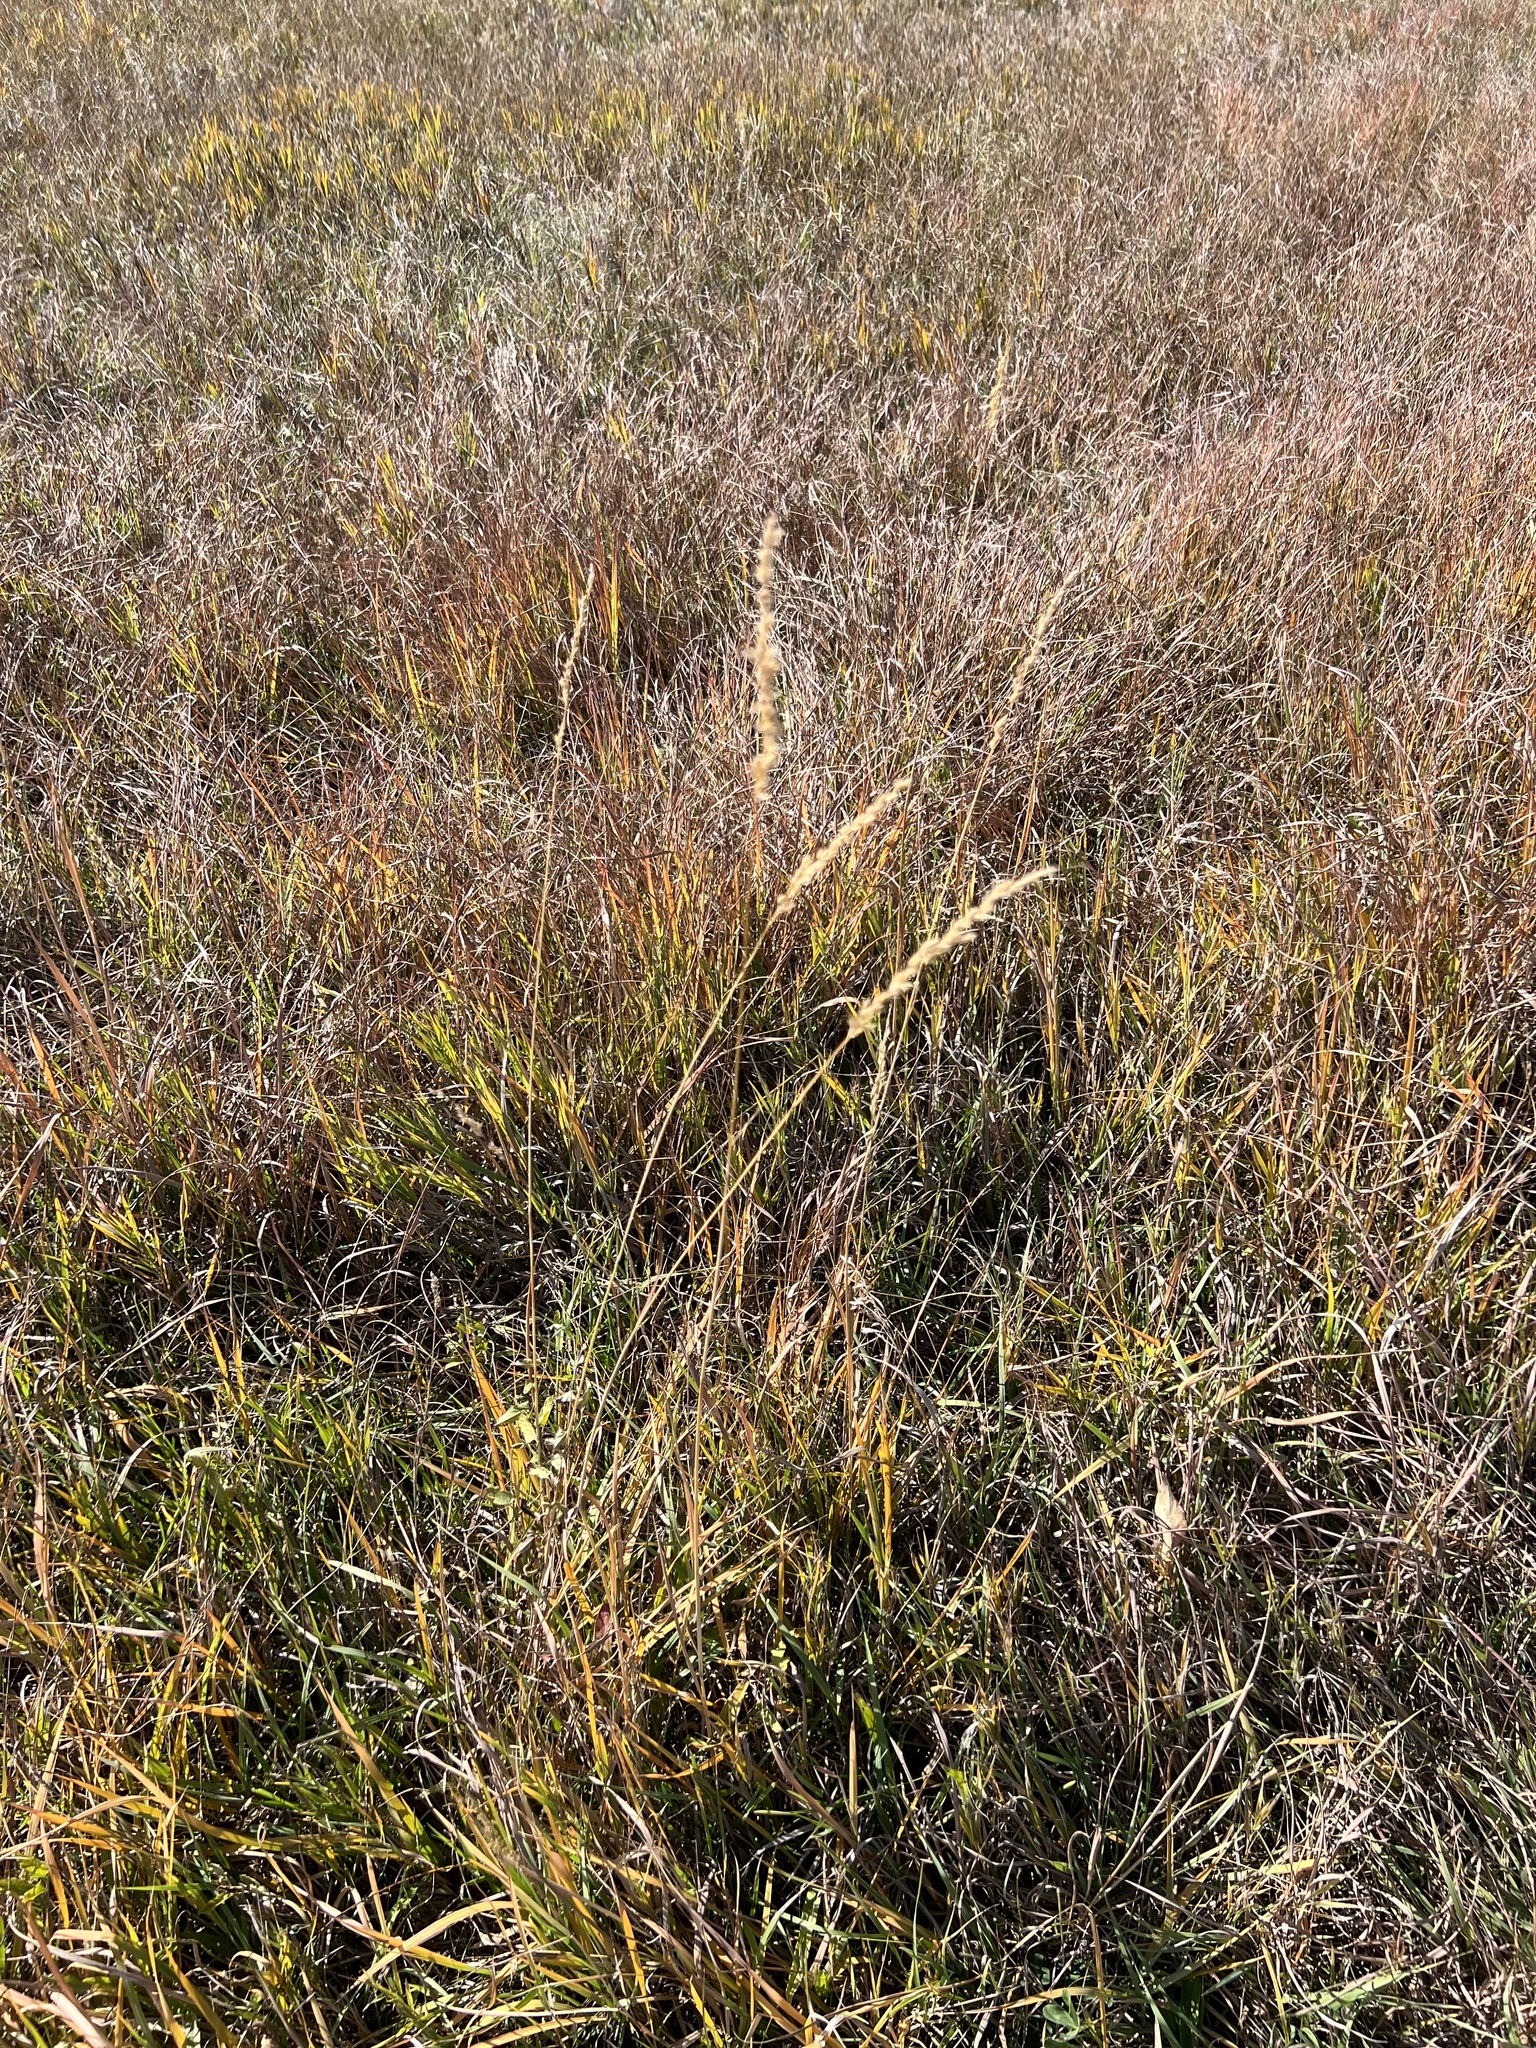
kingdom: Plantae
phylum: Tracheophyta
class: Liliopsida
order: Poales
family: Poaceae
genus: Sorghastrum
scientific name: Sorghastrum nutans
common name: Indian grass
